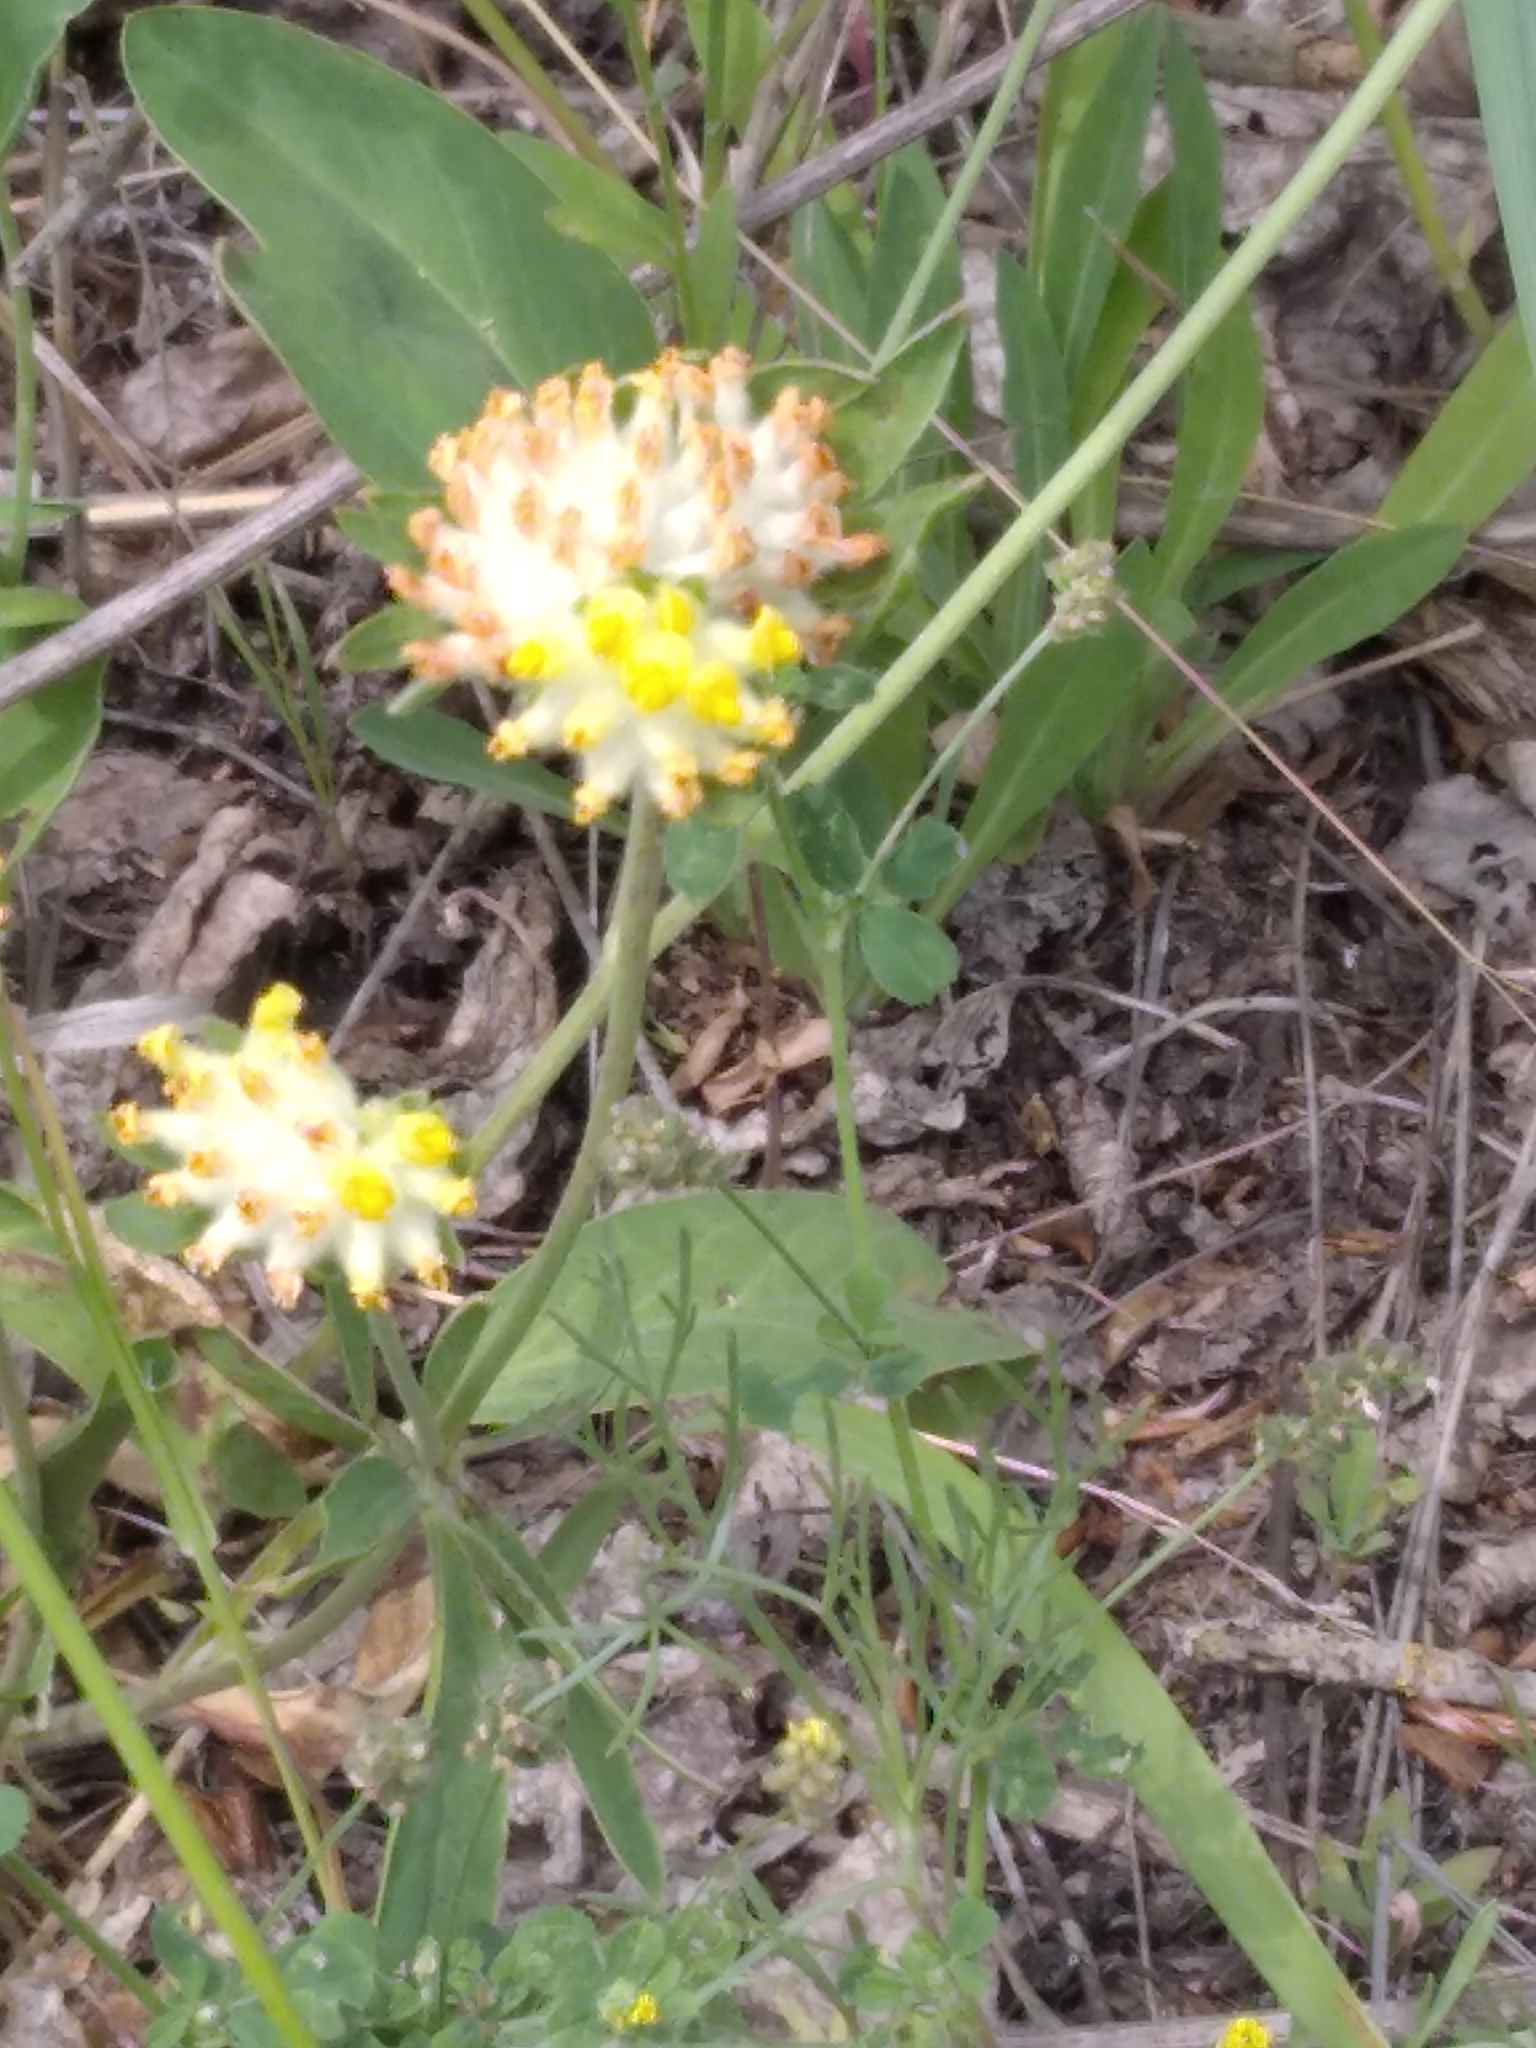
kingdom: Plantae
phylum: Tracheophyta
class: Magnoliopsida
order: Fabales
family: Fabaceae
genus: Anthyllis
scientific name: Anthyllis vulneraria
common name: Kidney vetch
